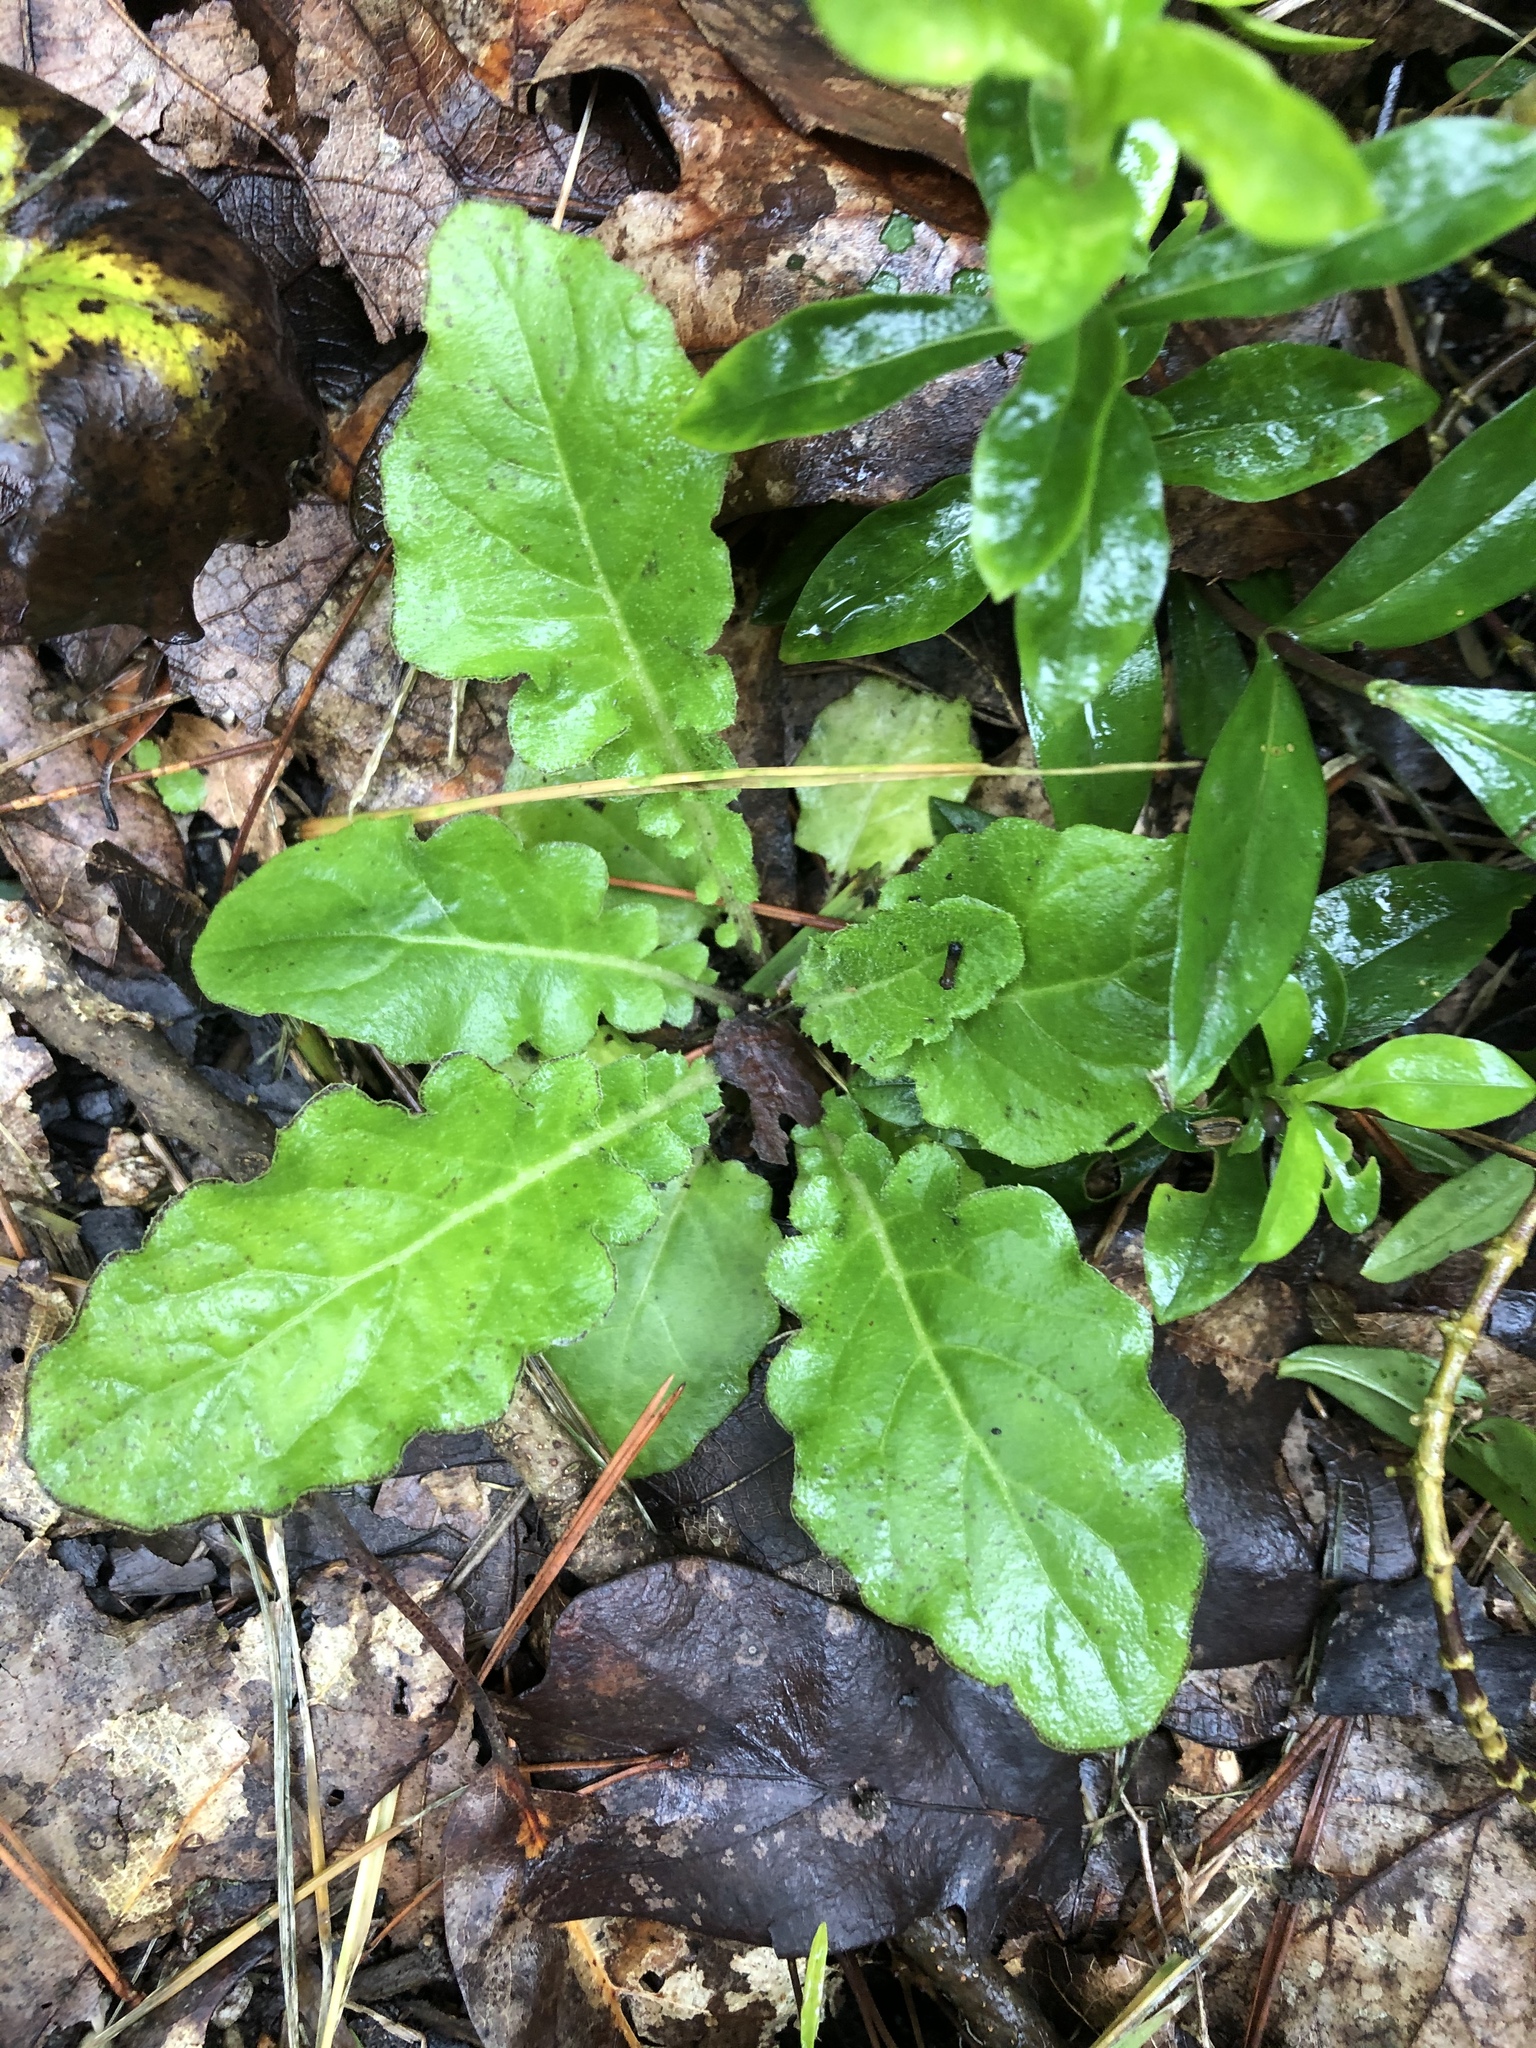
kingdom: Plantae
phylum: Tracheophyta
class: Magnoliopsida
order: Asterales
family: Asteraceae
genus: Youngia
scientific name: Youngia japonica
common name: Oriental false hawksbeard
